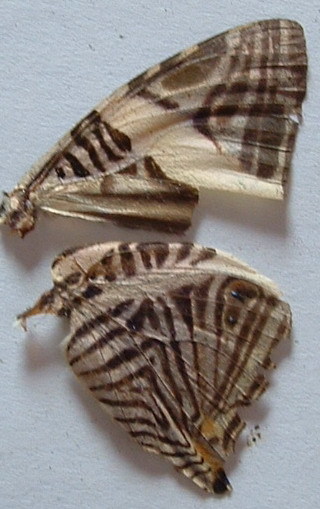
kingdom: Animalia
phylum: Arthropoda
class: Insecta
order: Lepidoptera
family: Nymphalidae
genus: Colobura
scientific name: Colobura dirce
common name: Dirce beauty
